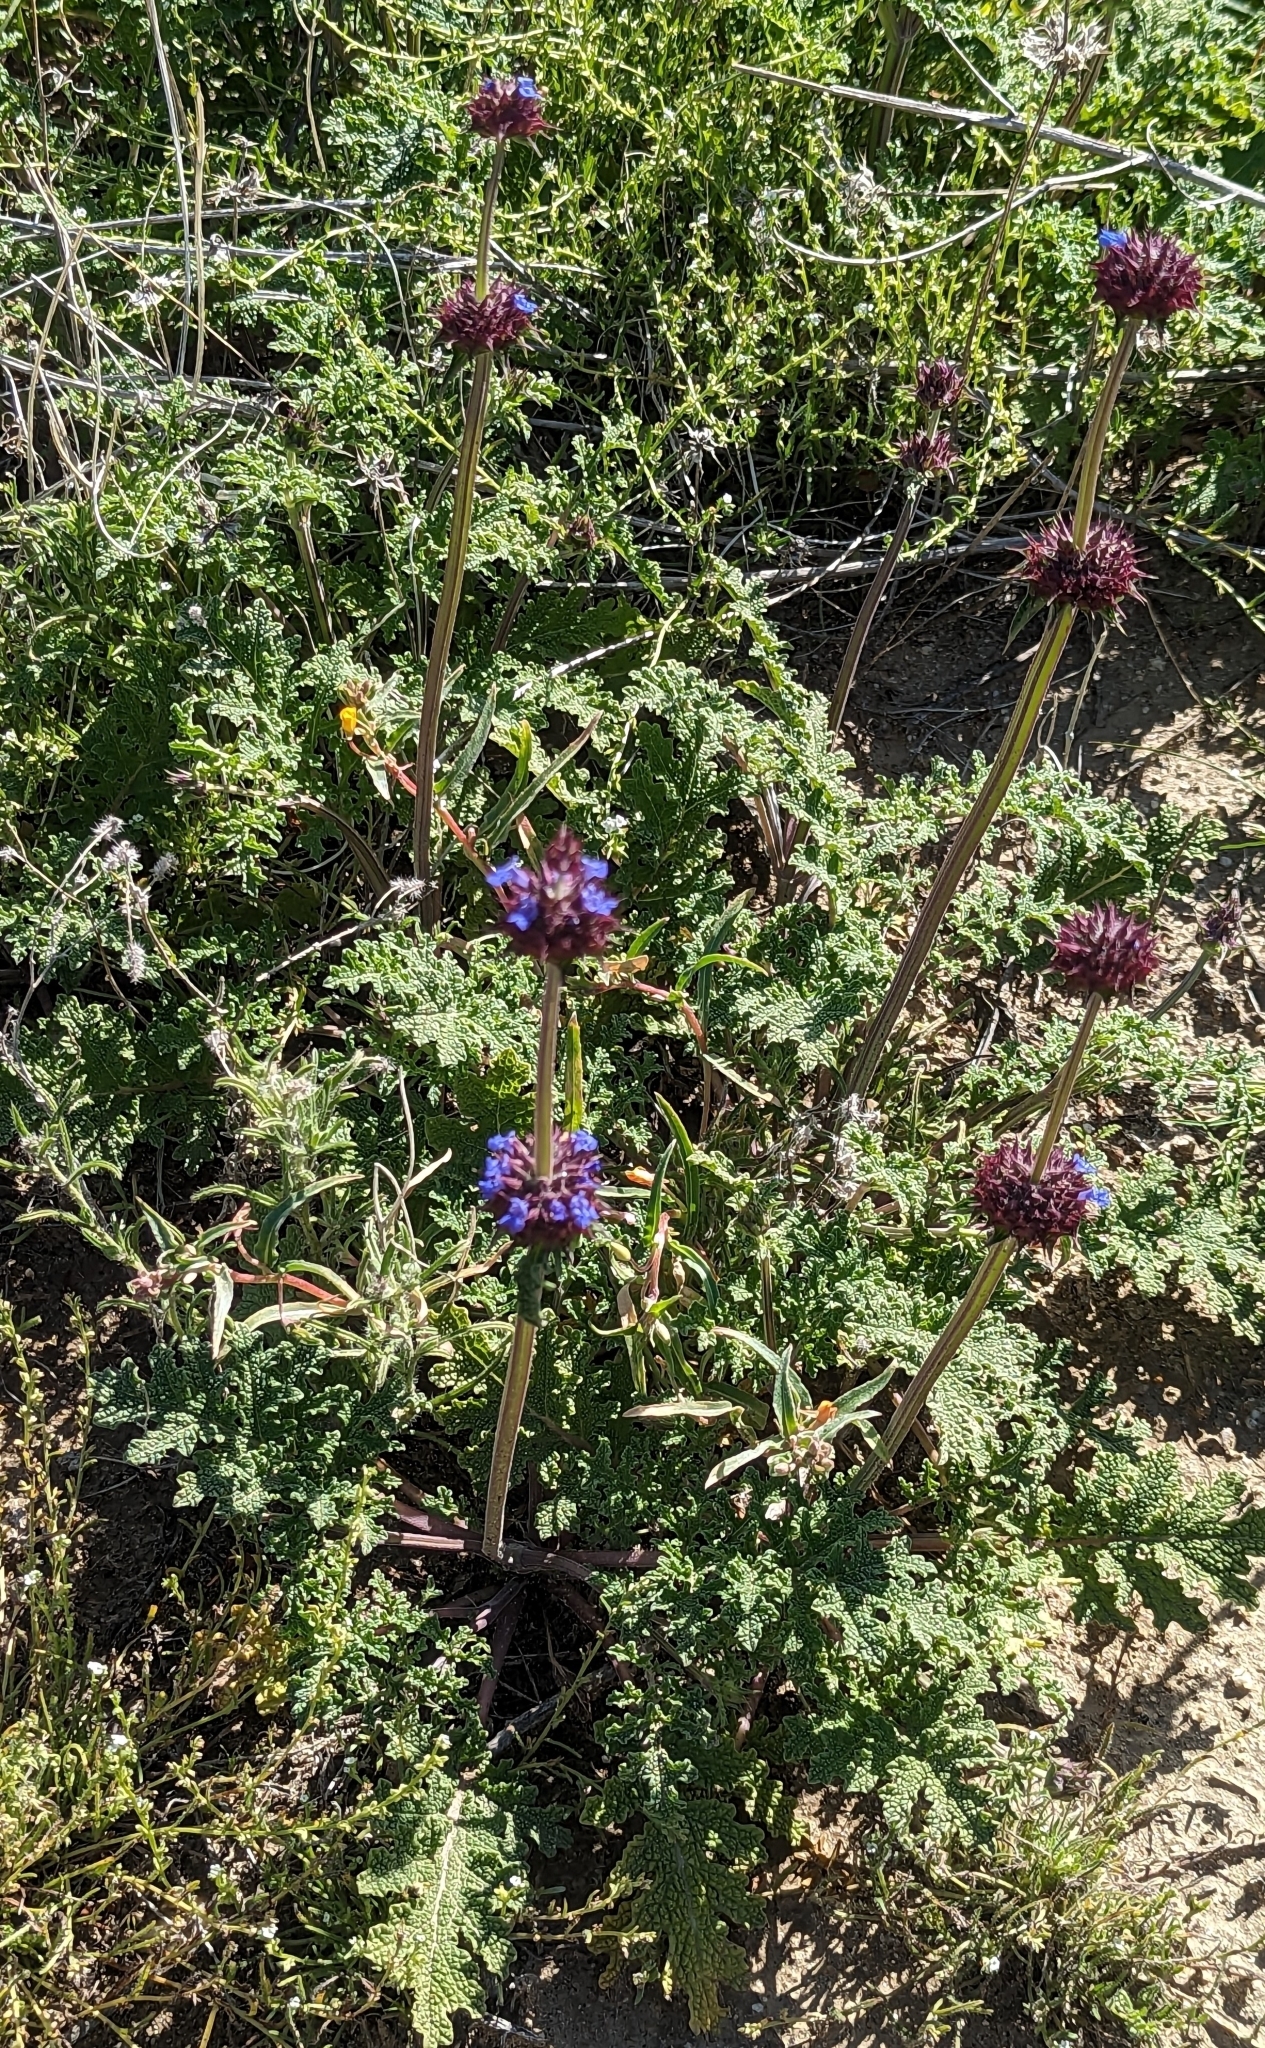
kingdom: Plantae
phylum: Tracheophyta
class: Magnoliopsida
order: Lamiales
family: Lamiaceae
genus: Salvia
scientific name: Salvia columbariae
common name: Chia
